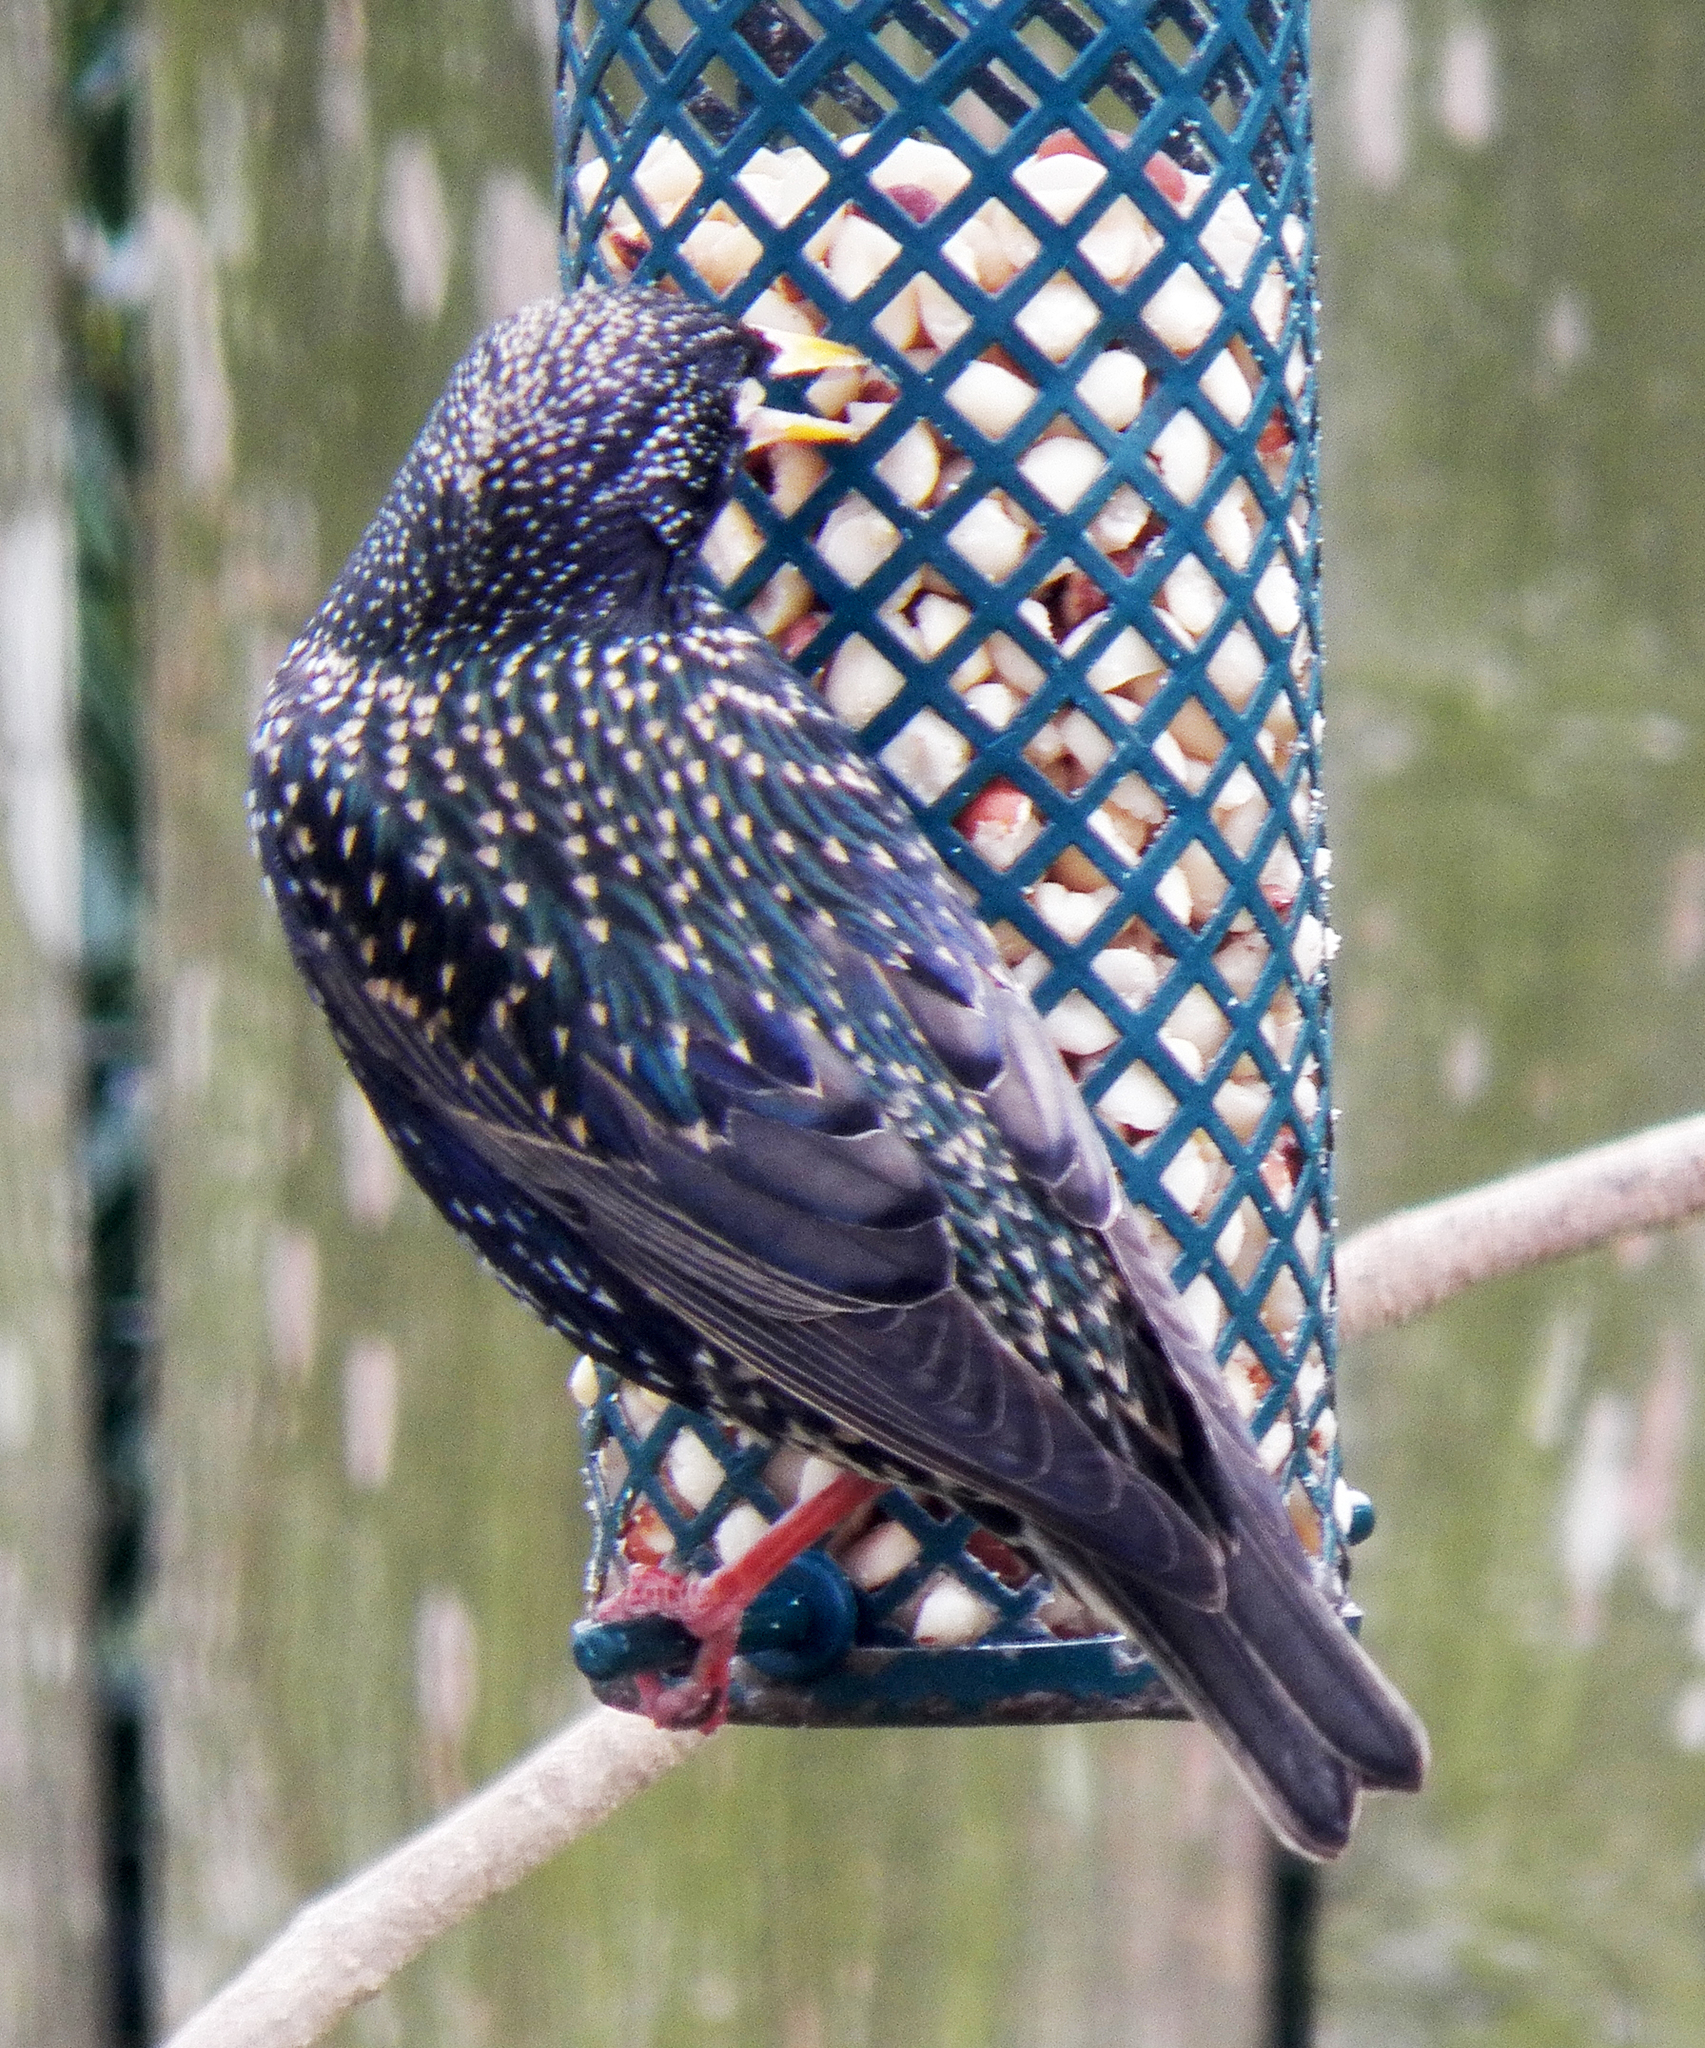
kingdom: Animalia
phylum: Chordata
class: Aves
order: Passeriformes
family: Sturnidae
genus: Sturnus
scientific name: Sturnus vulgaris
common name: Common starling
